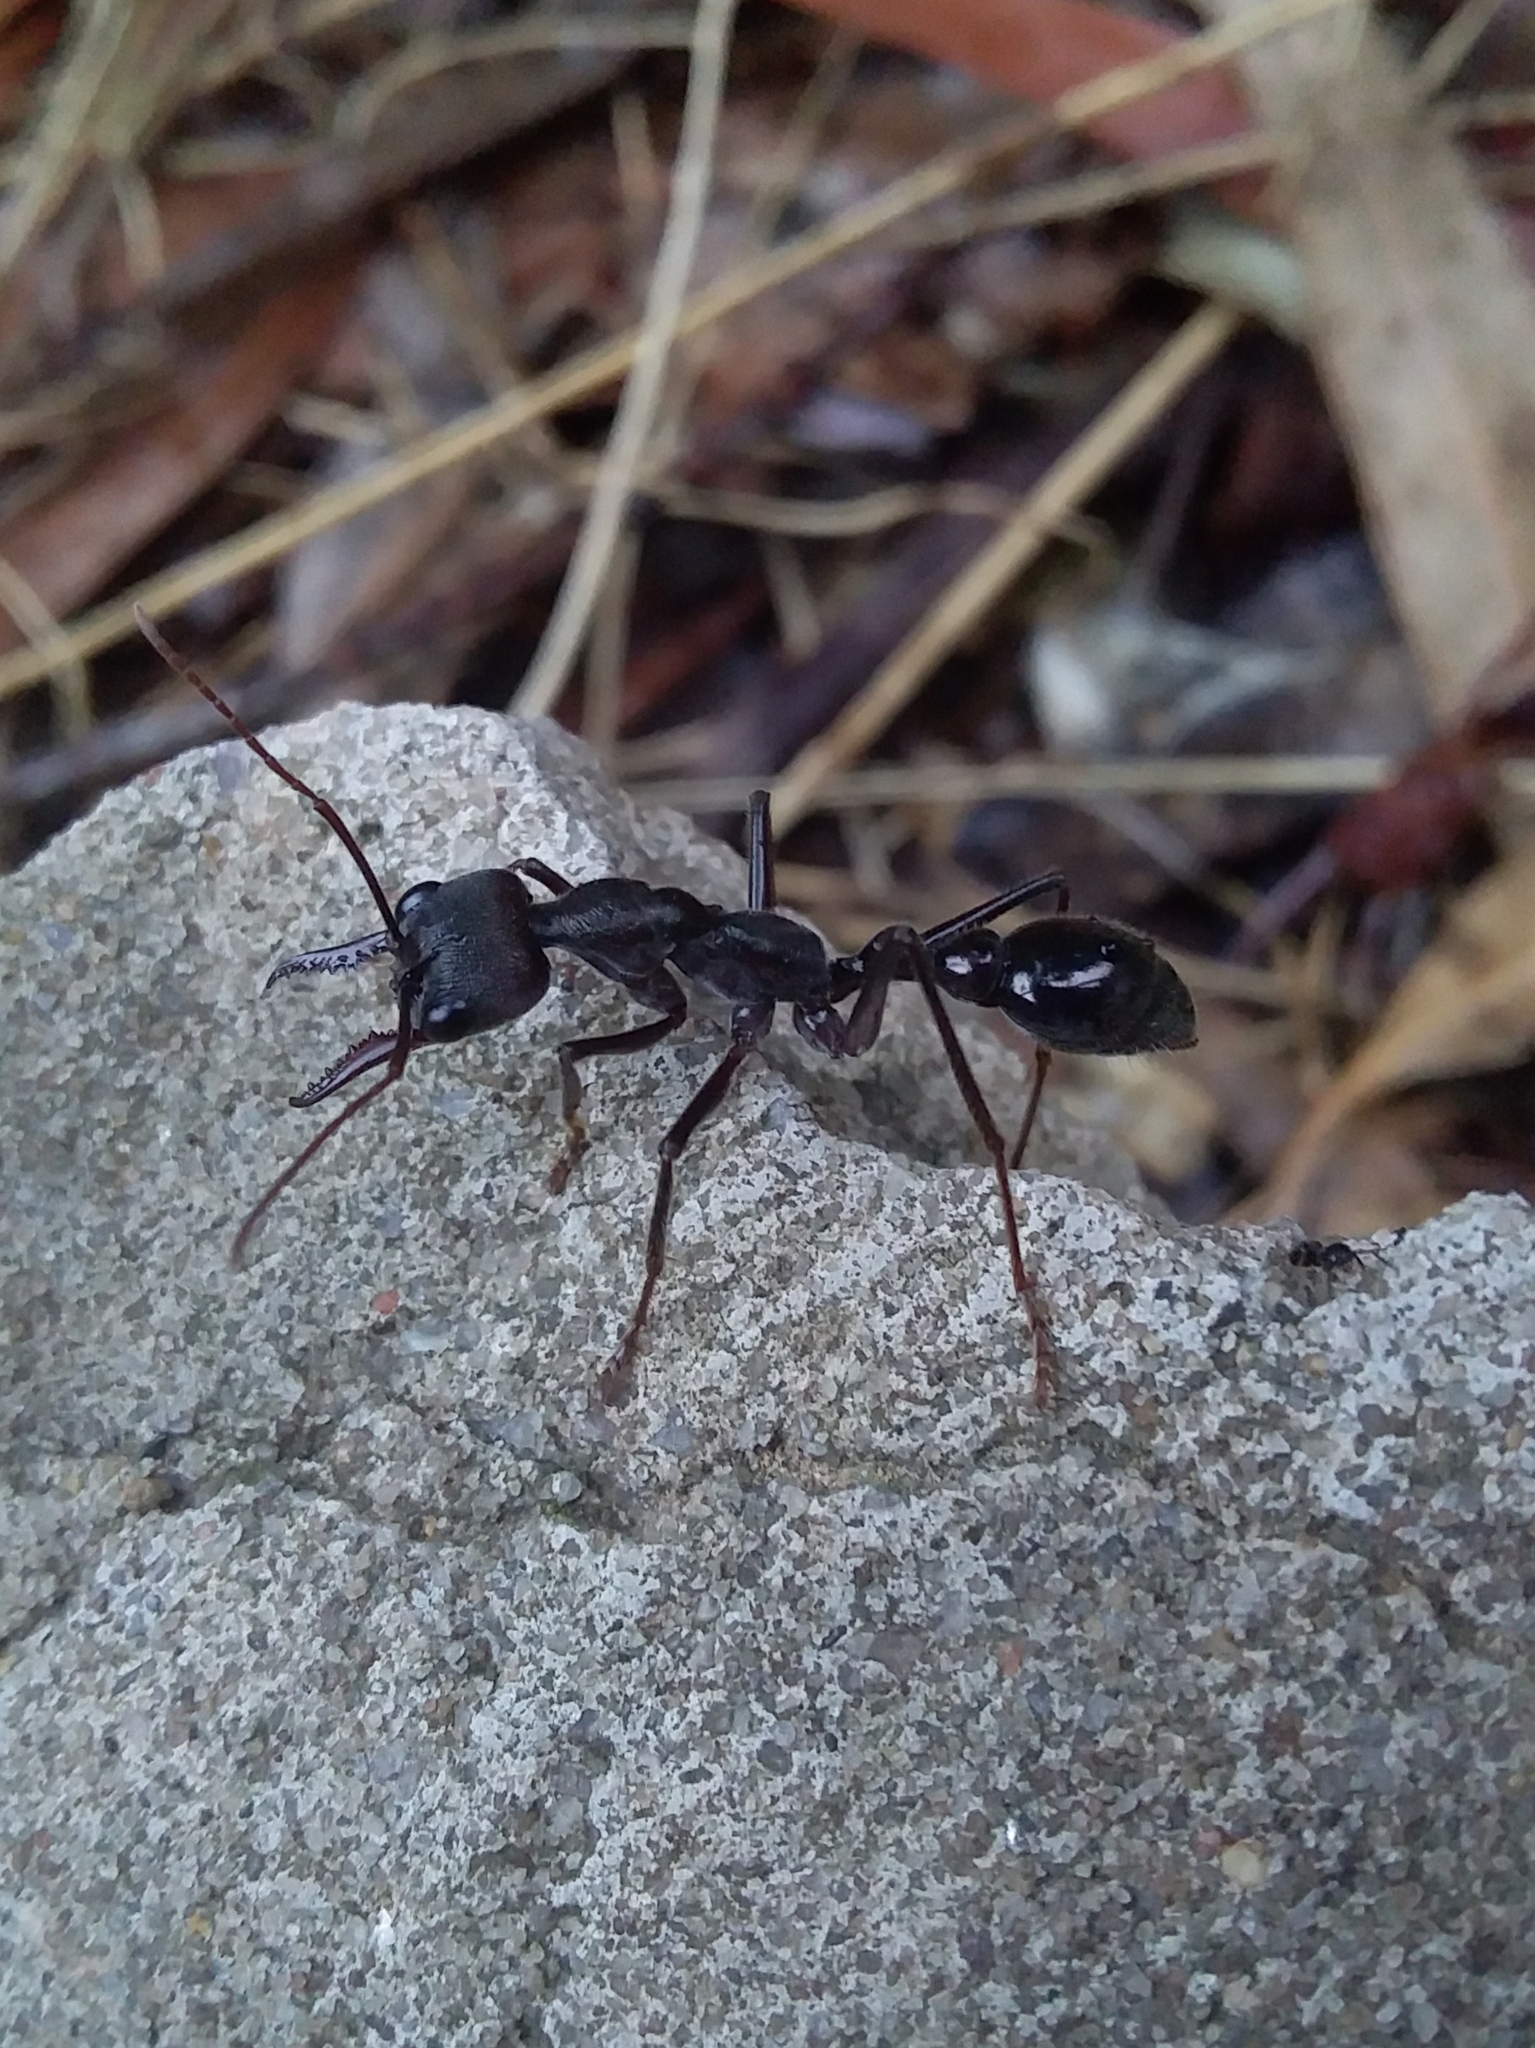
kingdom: Animalia
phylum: Arthropoda
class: Insecta
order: Hymenoptera
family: Formicidae
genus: Myrmecia
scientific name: Myrmecia pyriformis
